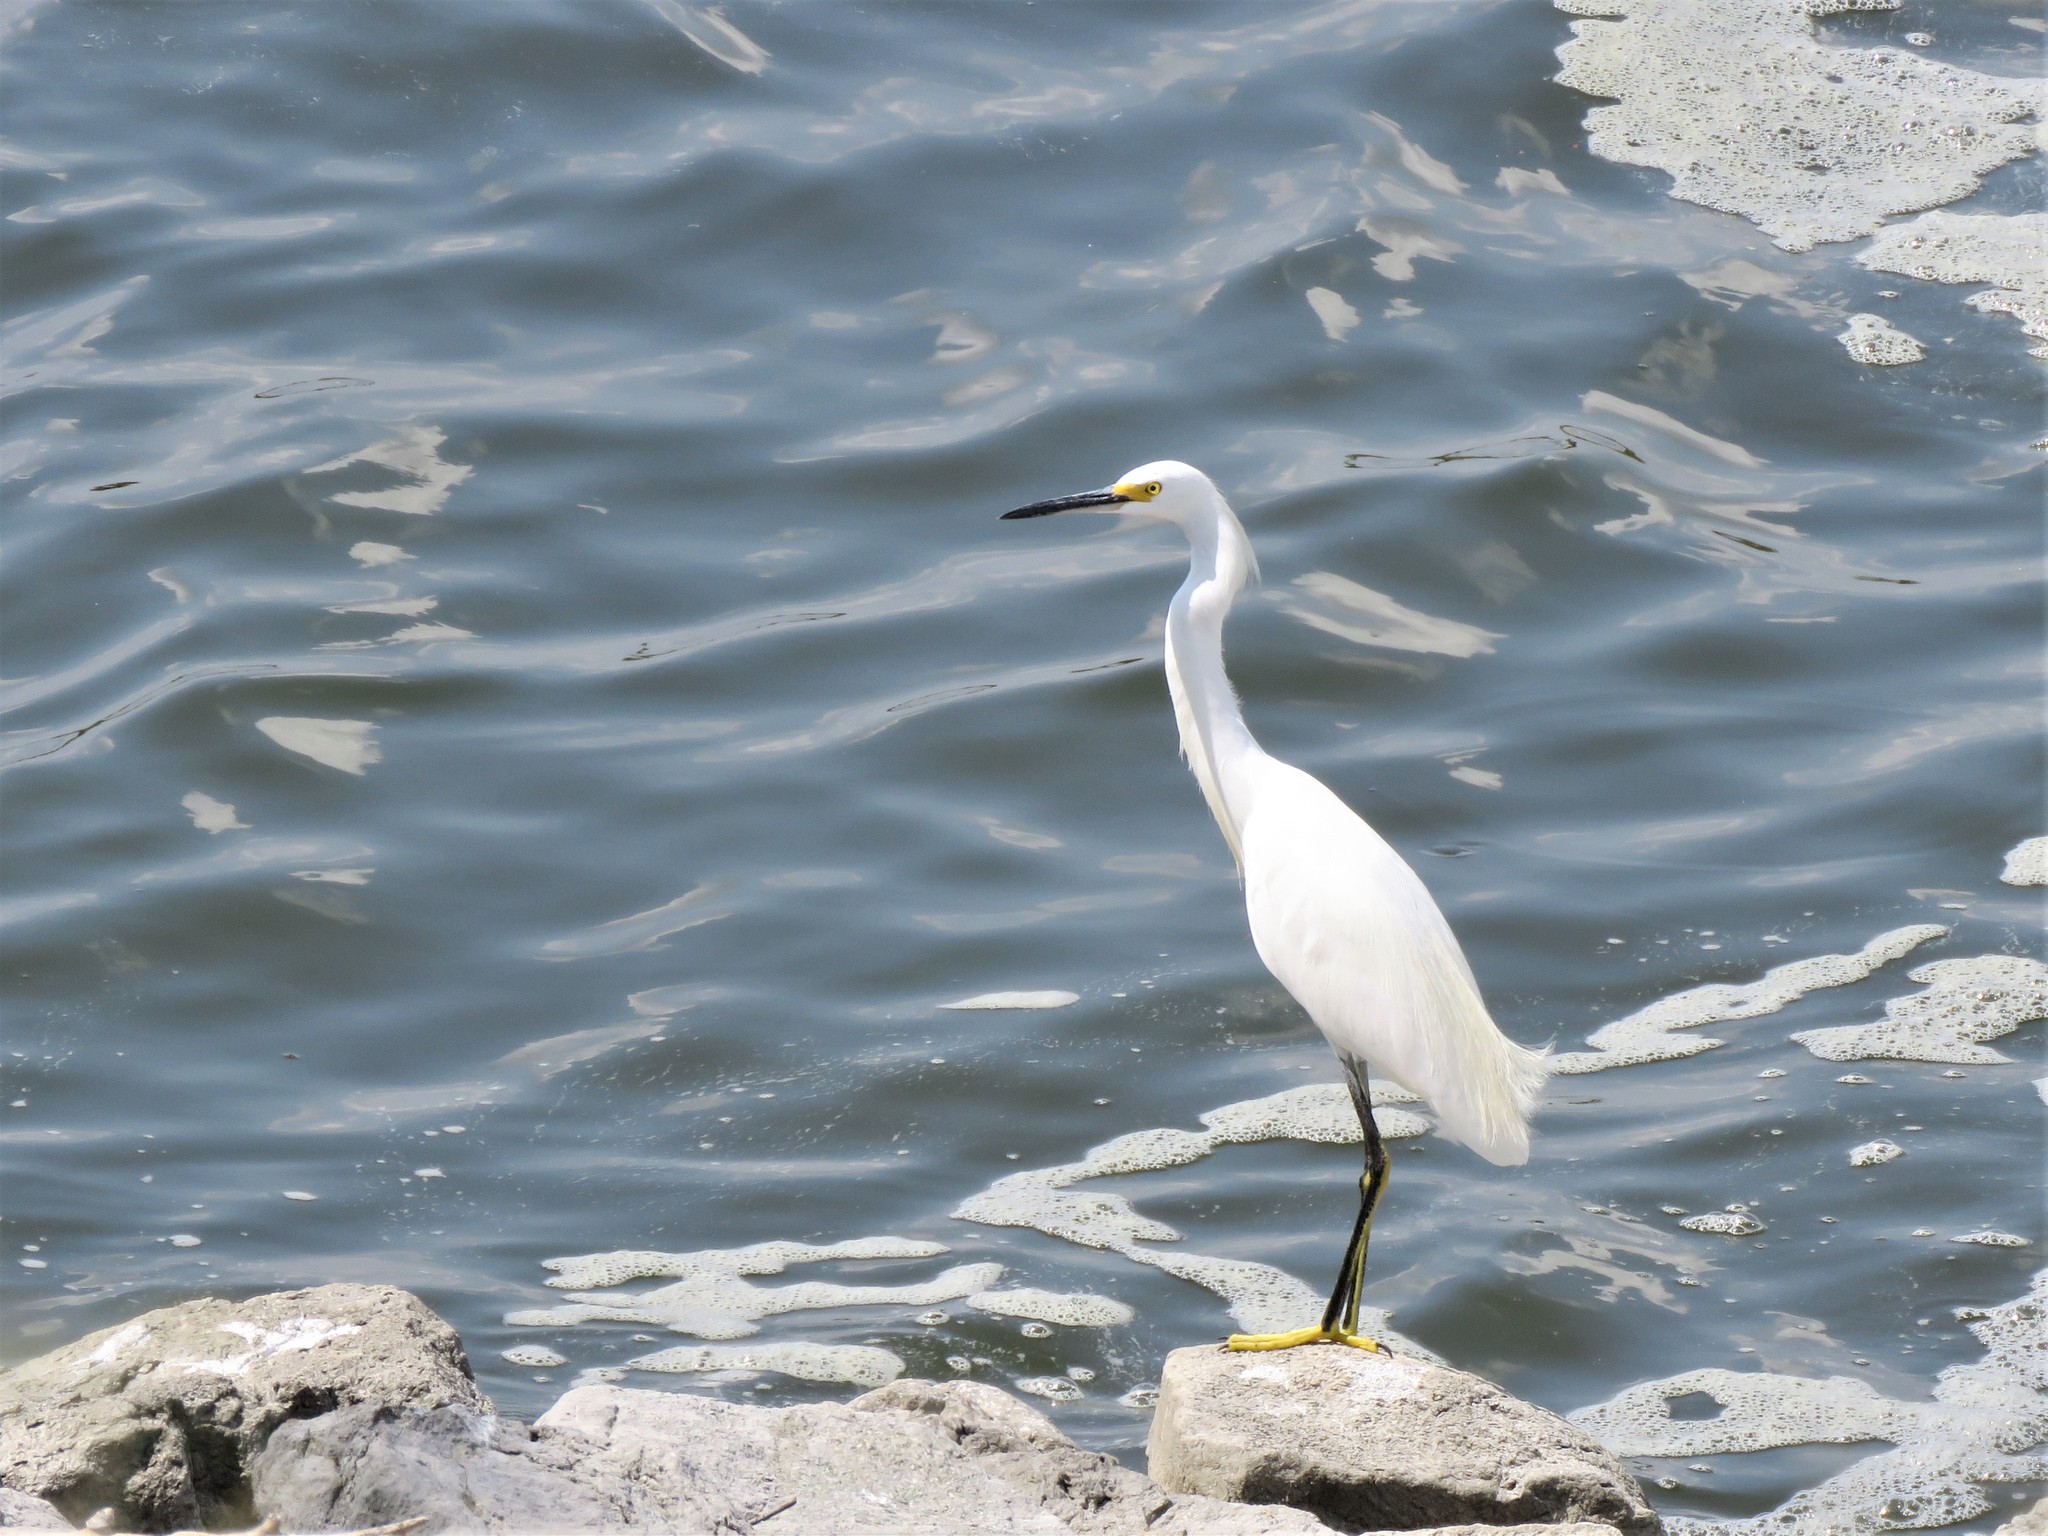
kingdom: Animalia
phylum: Chordata
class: Aves
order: Pelecaniformes
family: Ardeidae
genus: Egretta
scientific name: Egretta thula
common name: Snowy egret
